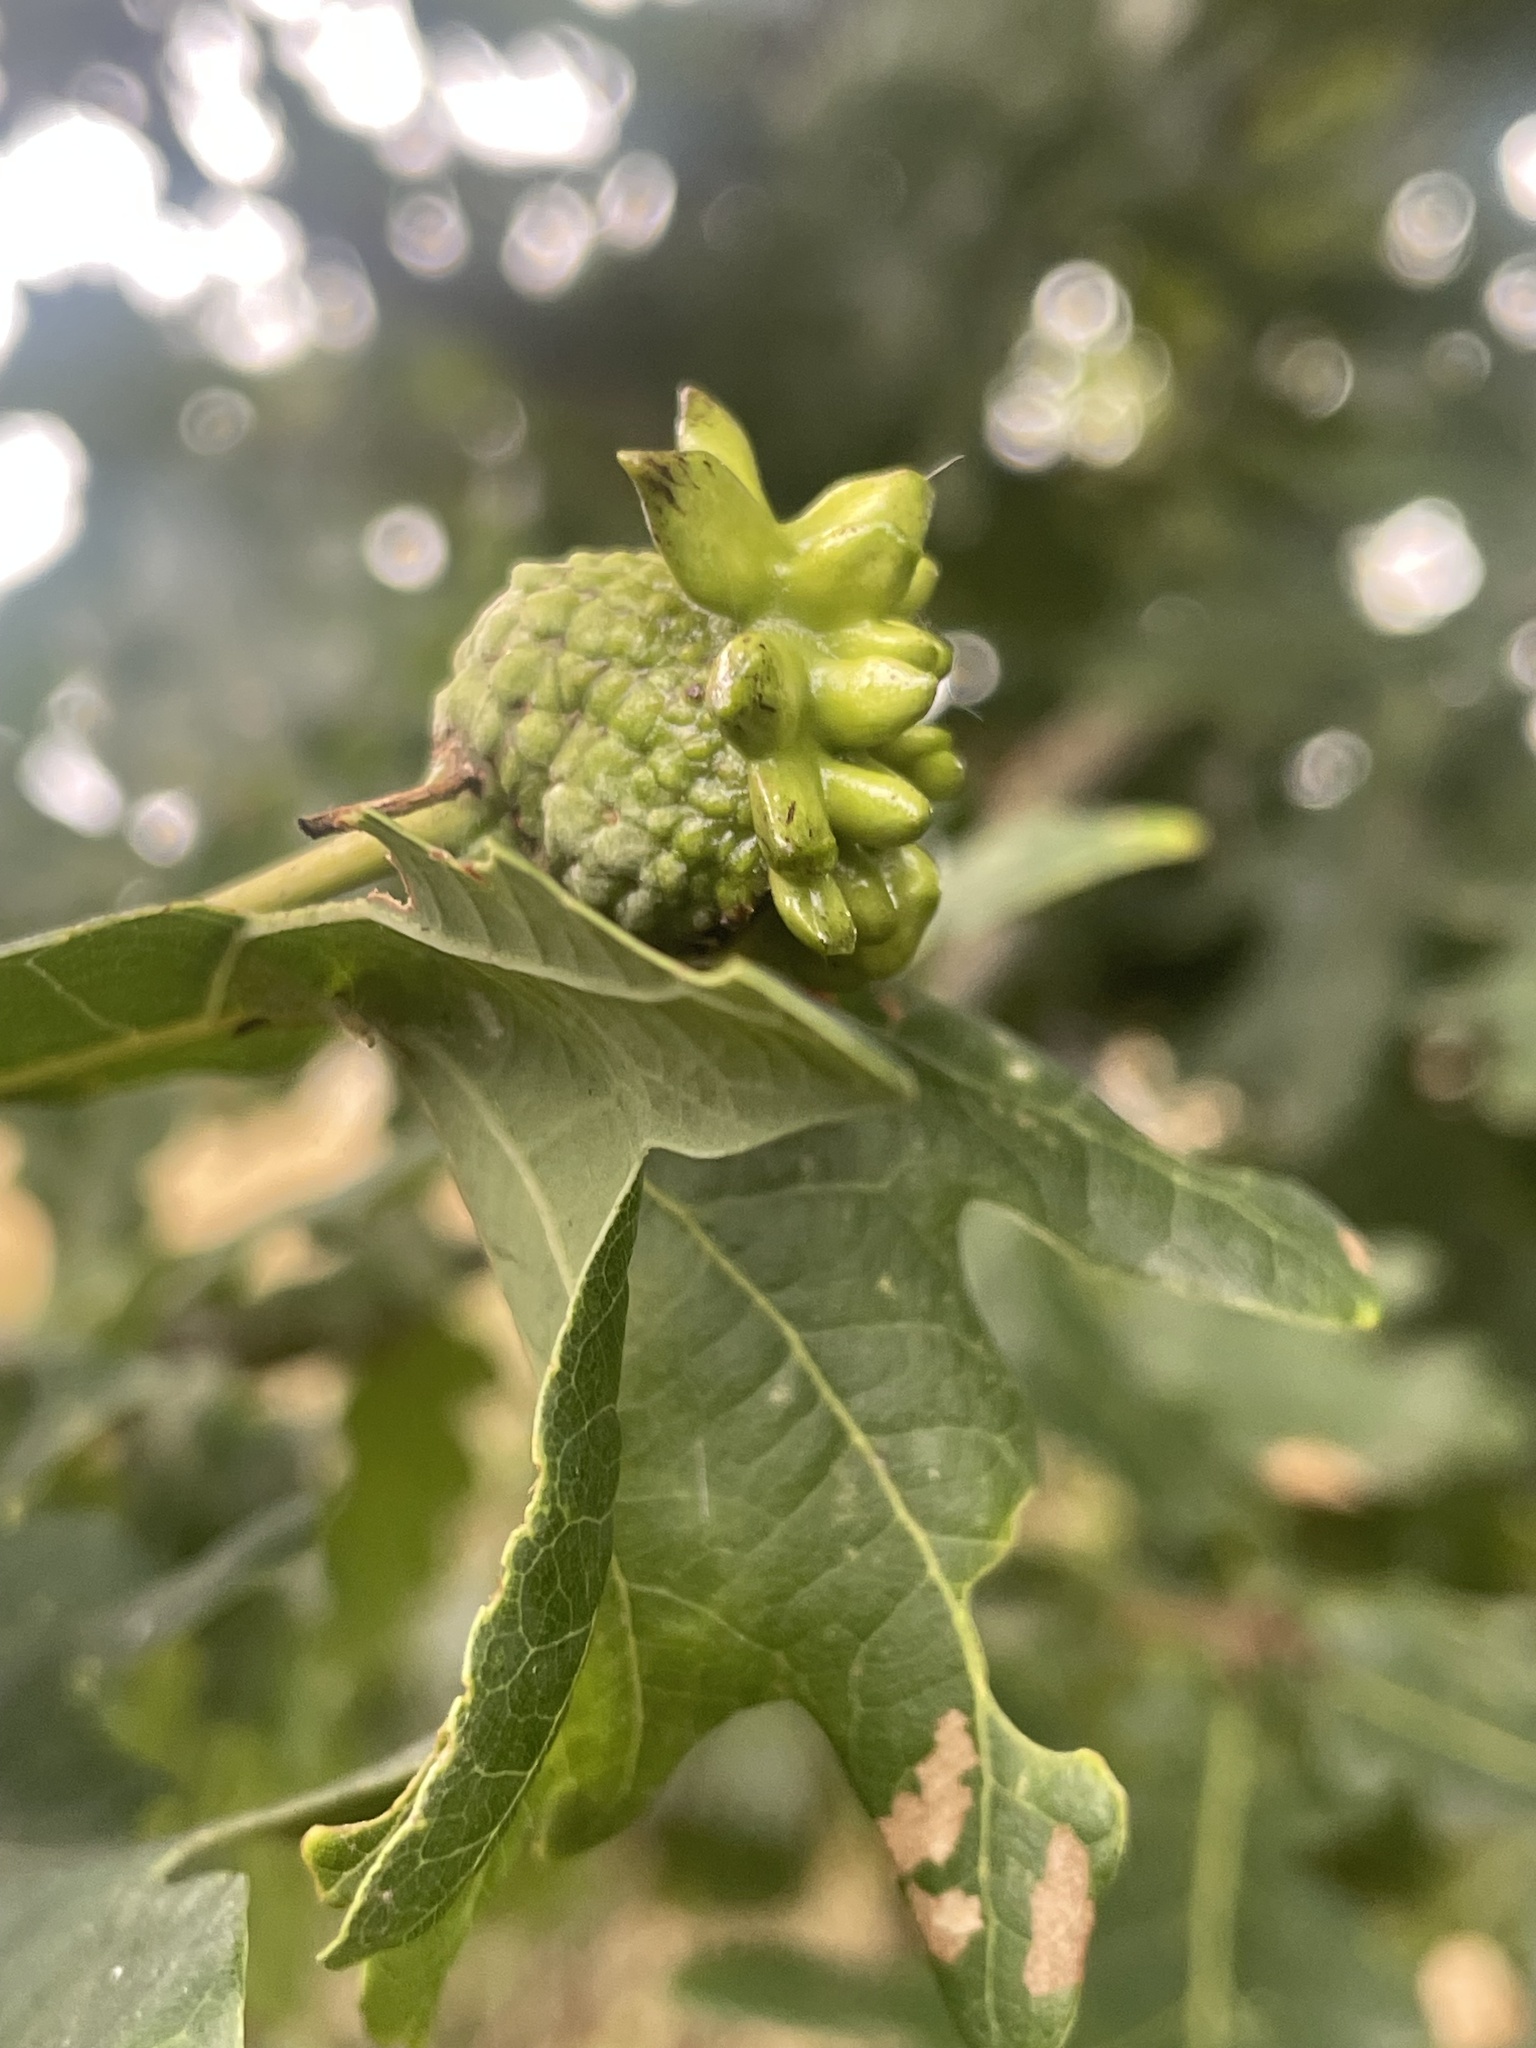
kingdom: Animalia
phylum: Arthropoda
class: Insecta
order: Hymenoptera
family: Cynipidae
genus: Andricus
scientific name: Andricus quercuscalicis
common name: Knopper gall
